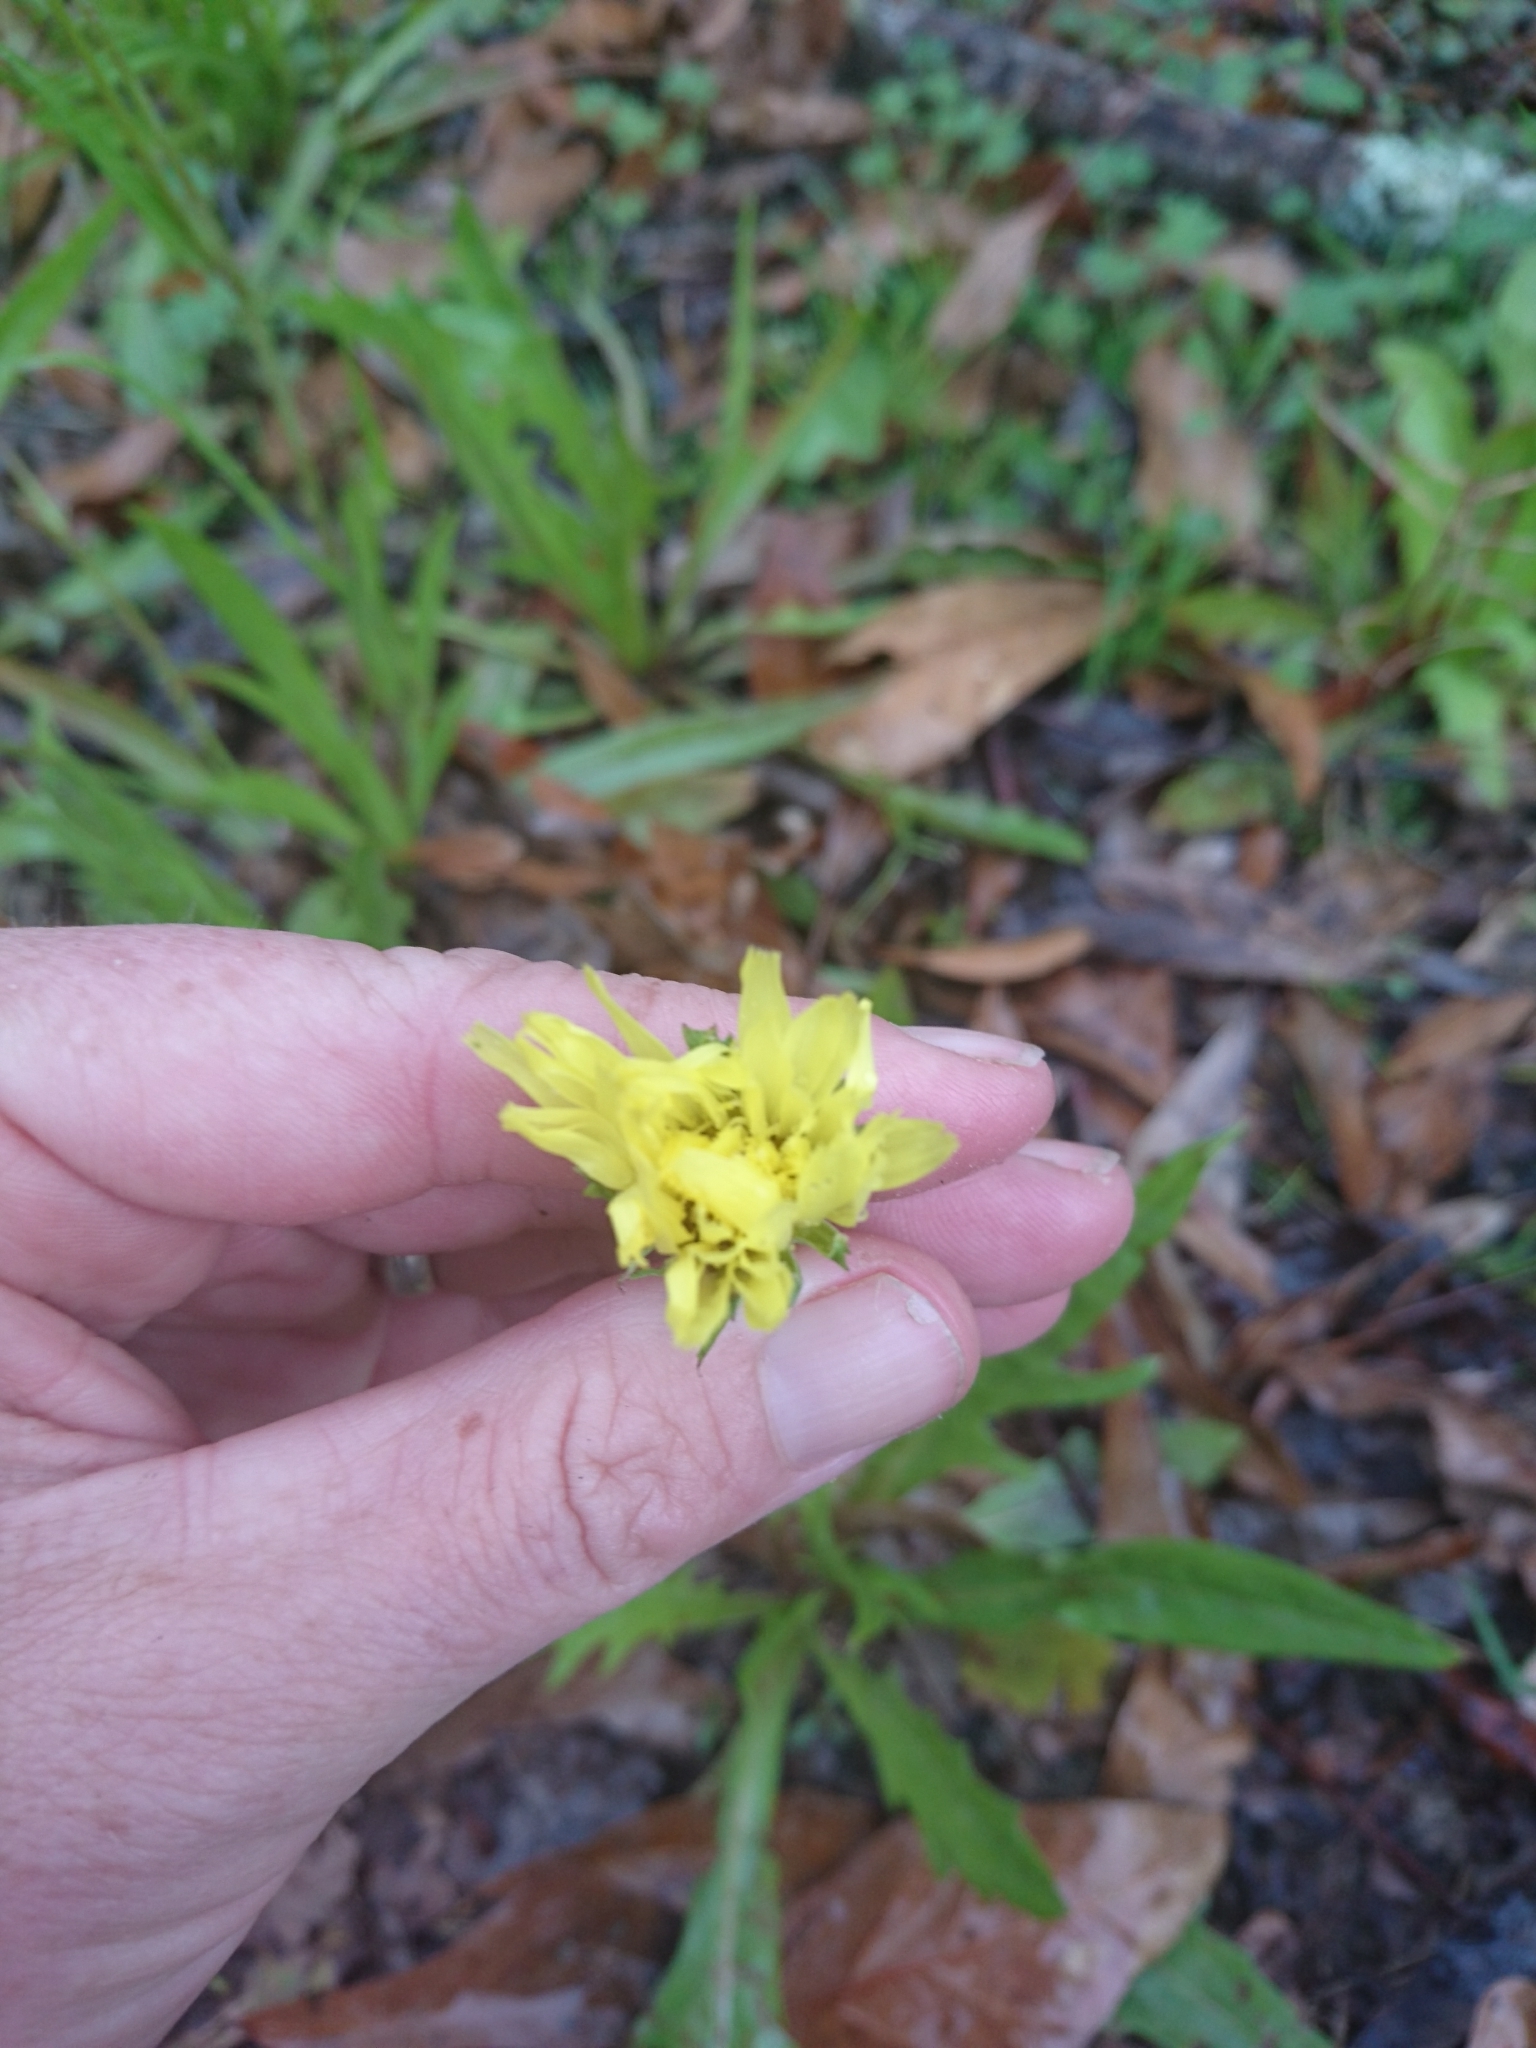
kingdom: Plantae
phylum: Tracheophyta
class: Magnoliopsida
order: Asterales
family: Asteraceae
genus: Pyrrhopappus
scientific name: Pyrrhopappus carolinianus
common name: Carolina desert-chicory
